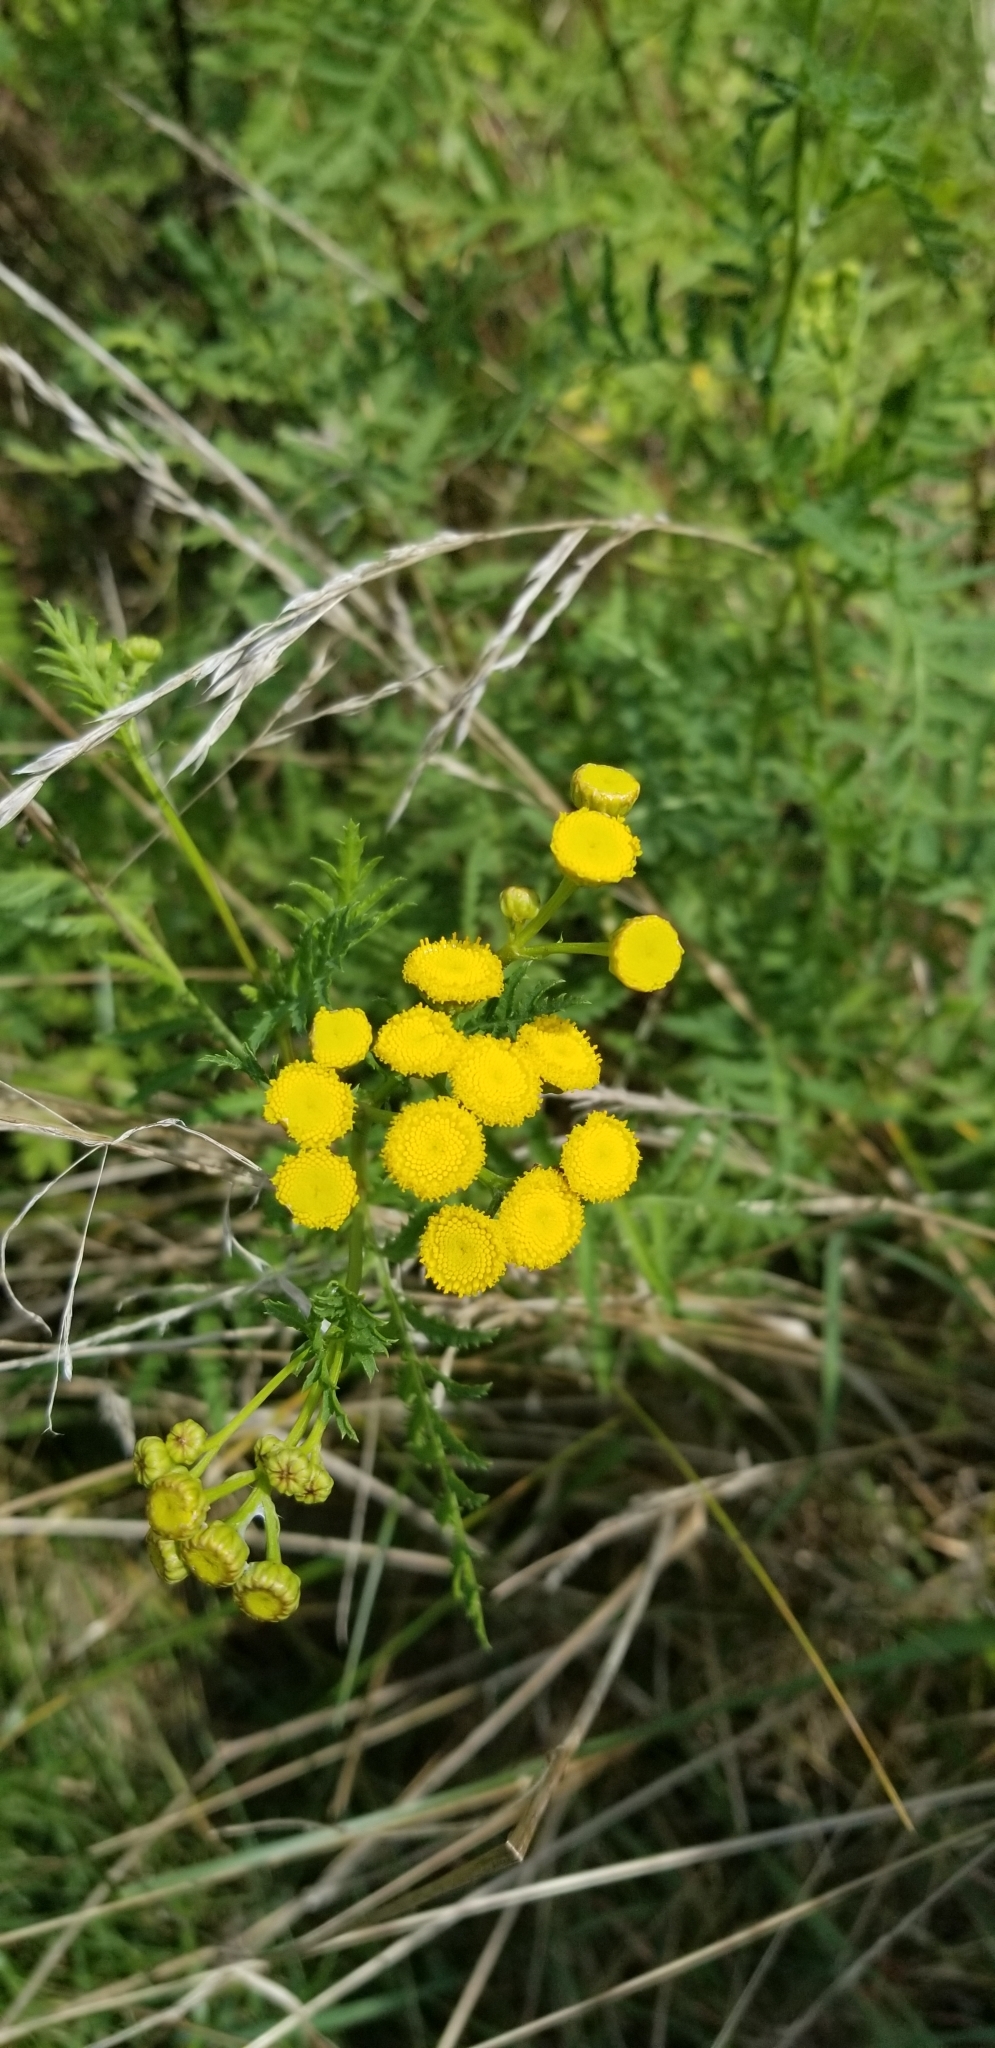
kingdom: Plantae
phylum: Tracheophyta
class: Magnoliopsida
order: Asterales
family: Asteraceae
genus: Tanacetum
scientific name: Tanacetum vulgare
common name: Common tansy
